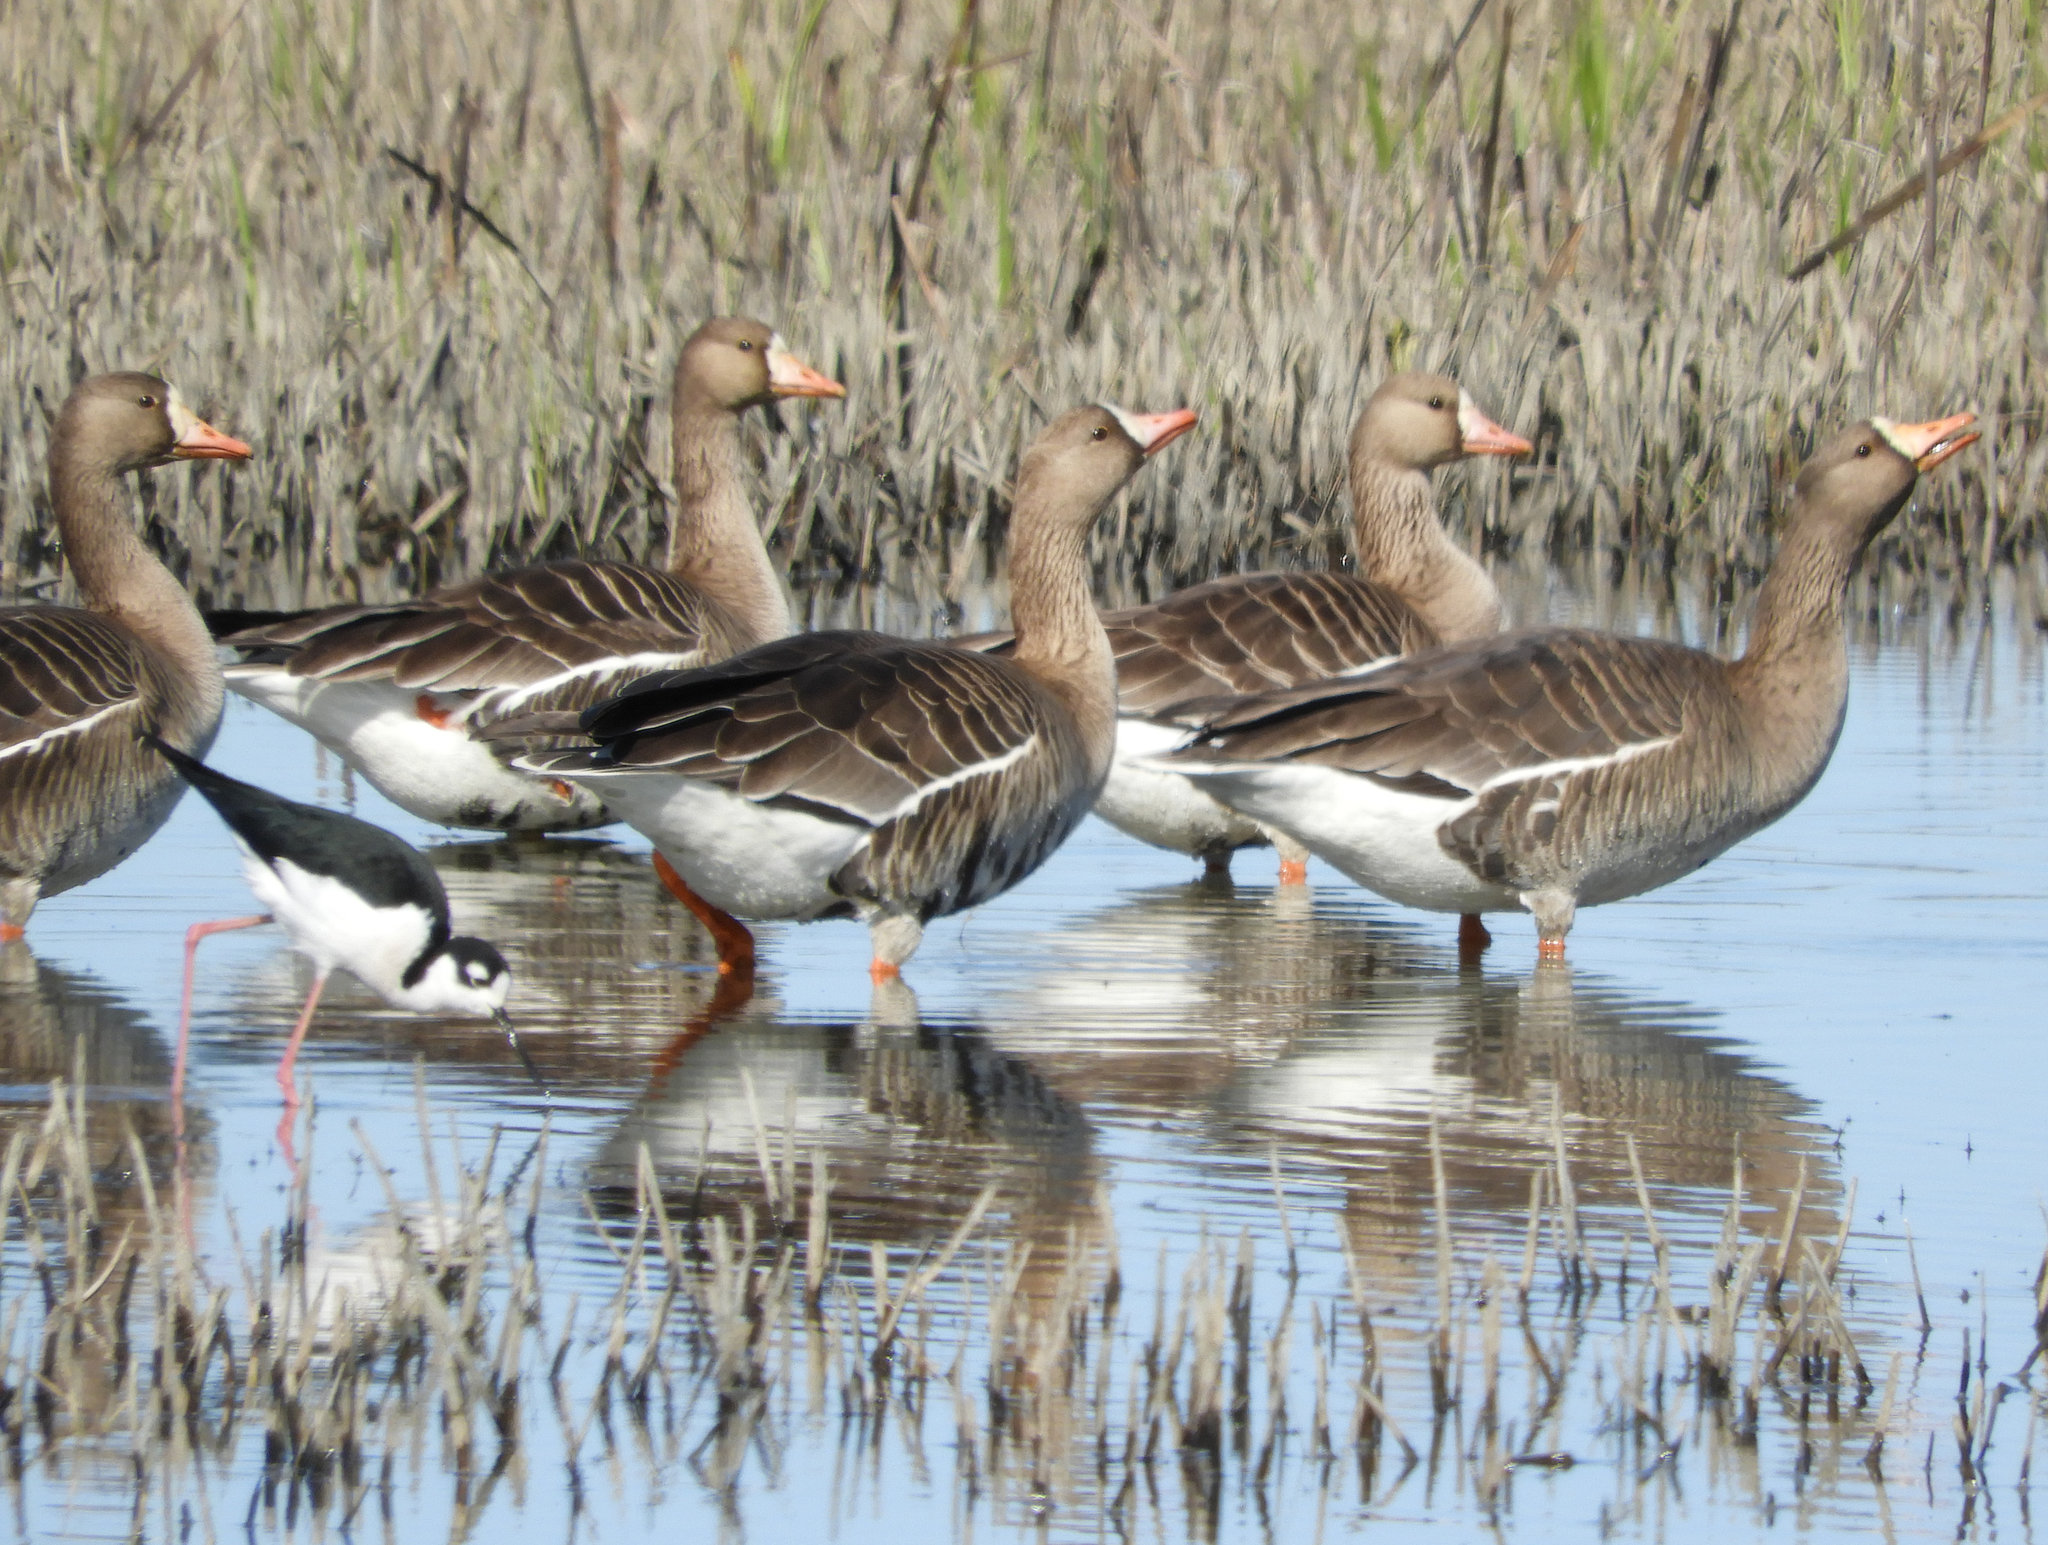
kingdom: Animalia
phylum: Chordata
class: Aves
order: Anseriformes
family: Anatidae
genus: Anser
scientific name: Anser albifrons
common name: Greater white-fronted goose
